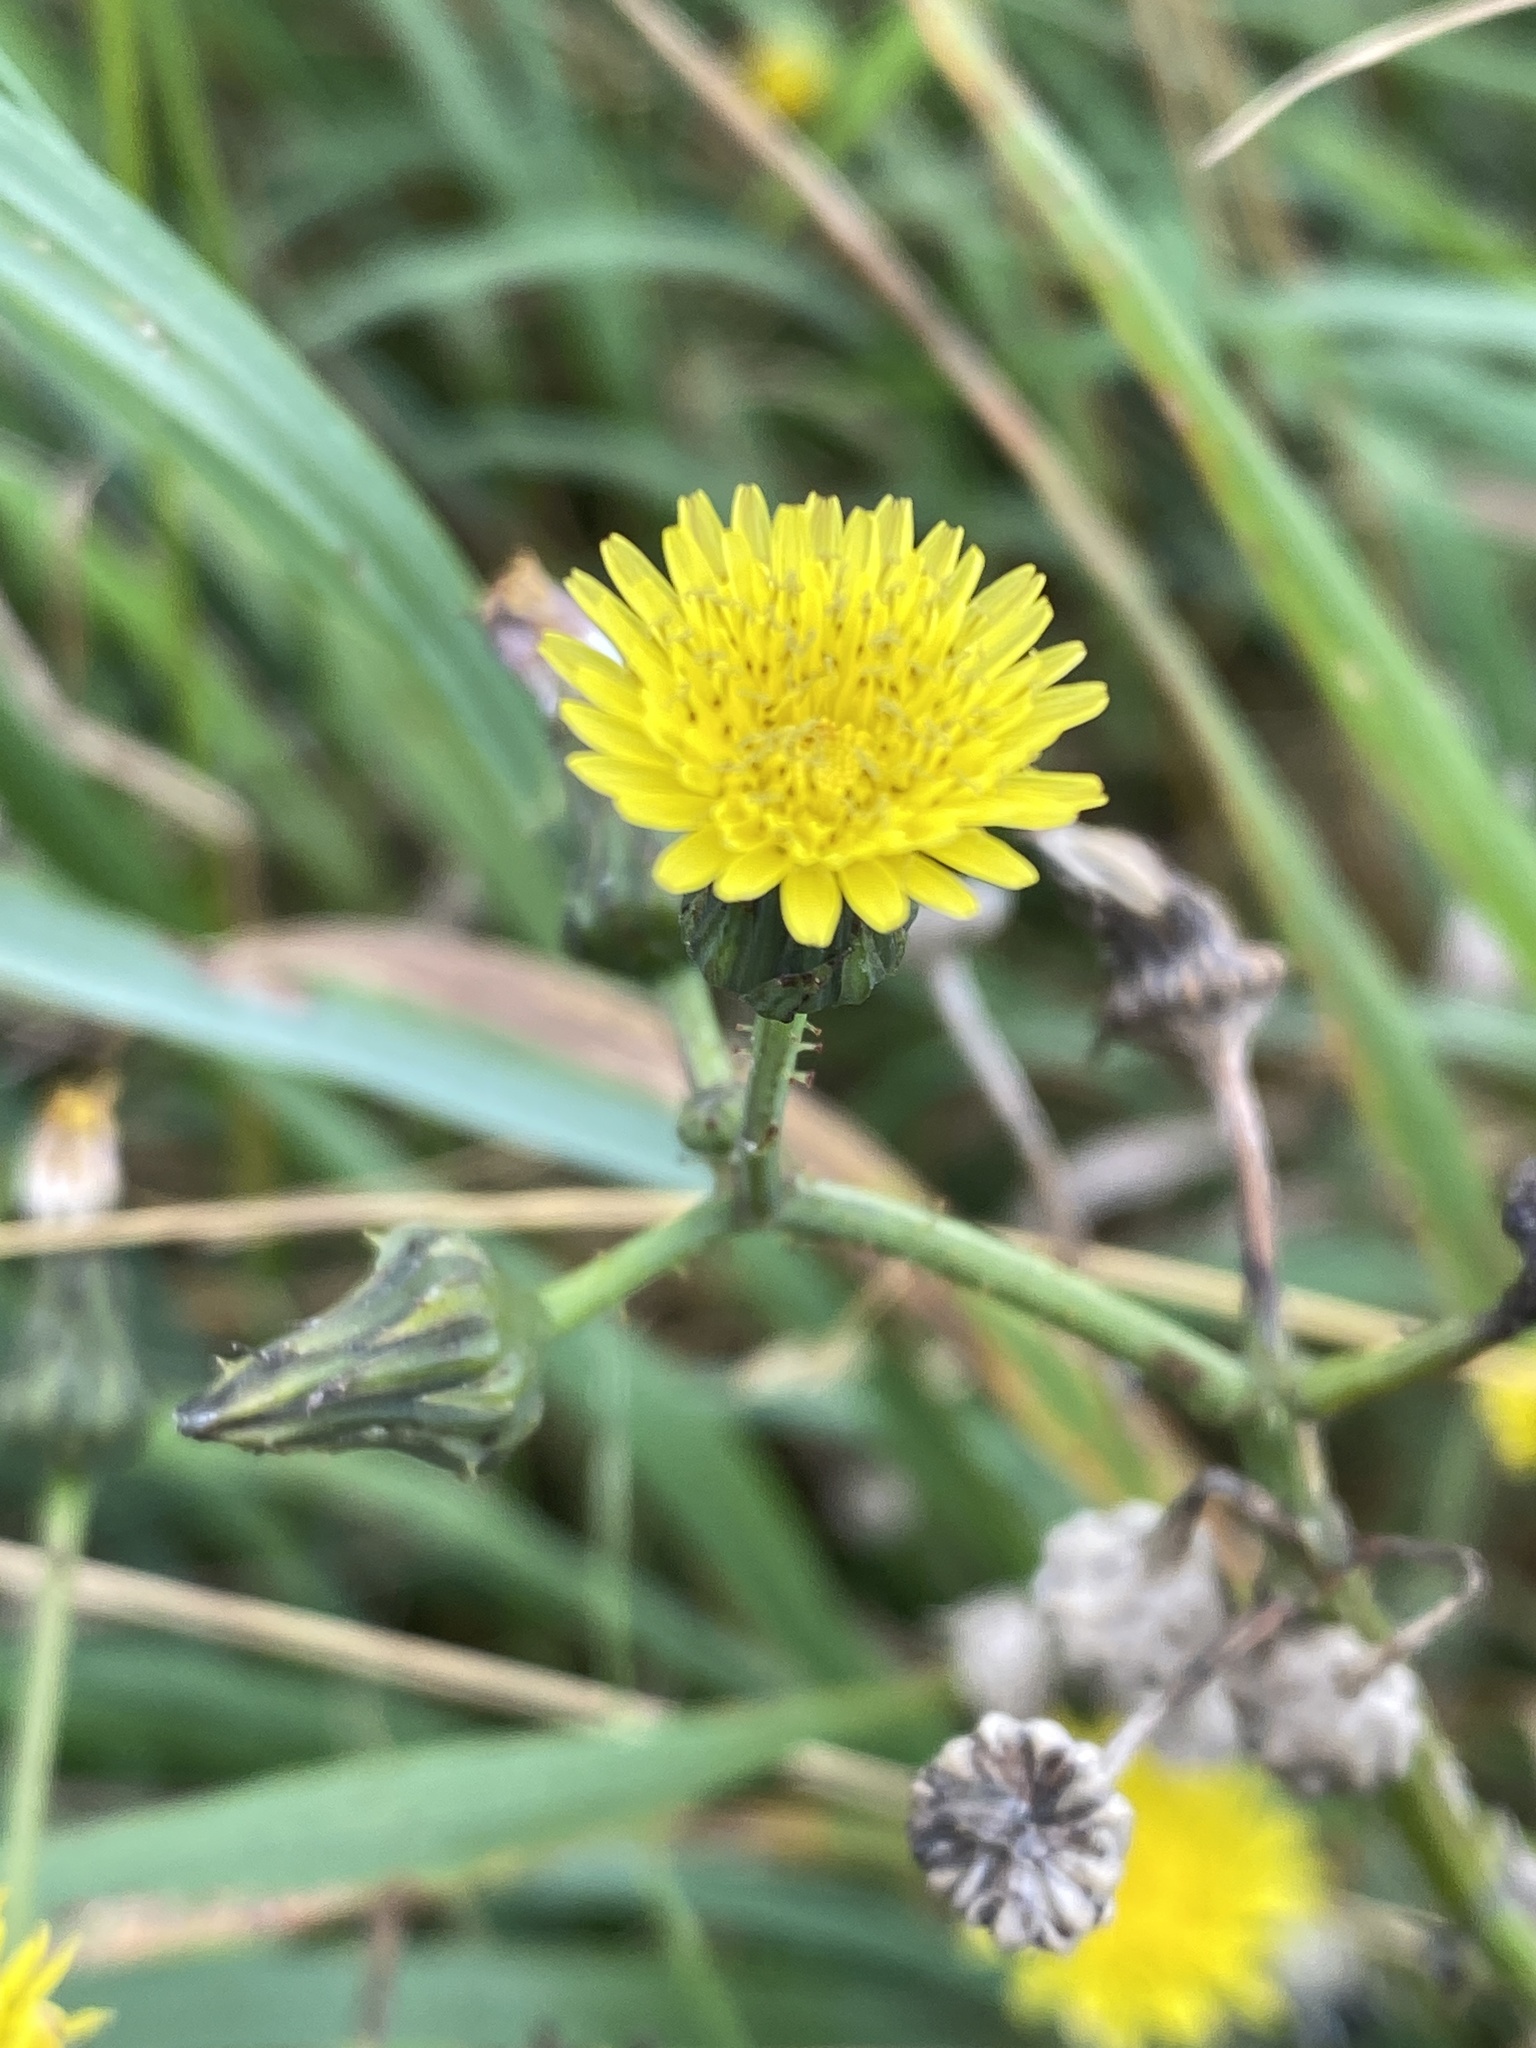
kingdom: Plantae
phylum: Tracheophyta
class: Magnoliopsida
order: Asterales
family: Asteraceae
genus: Sonchus
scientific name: Sonchus arvensis
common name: Perennial sow-thistle
